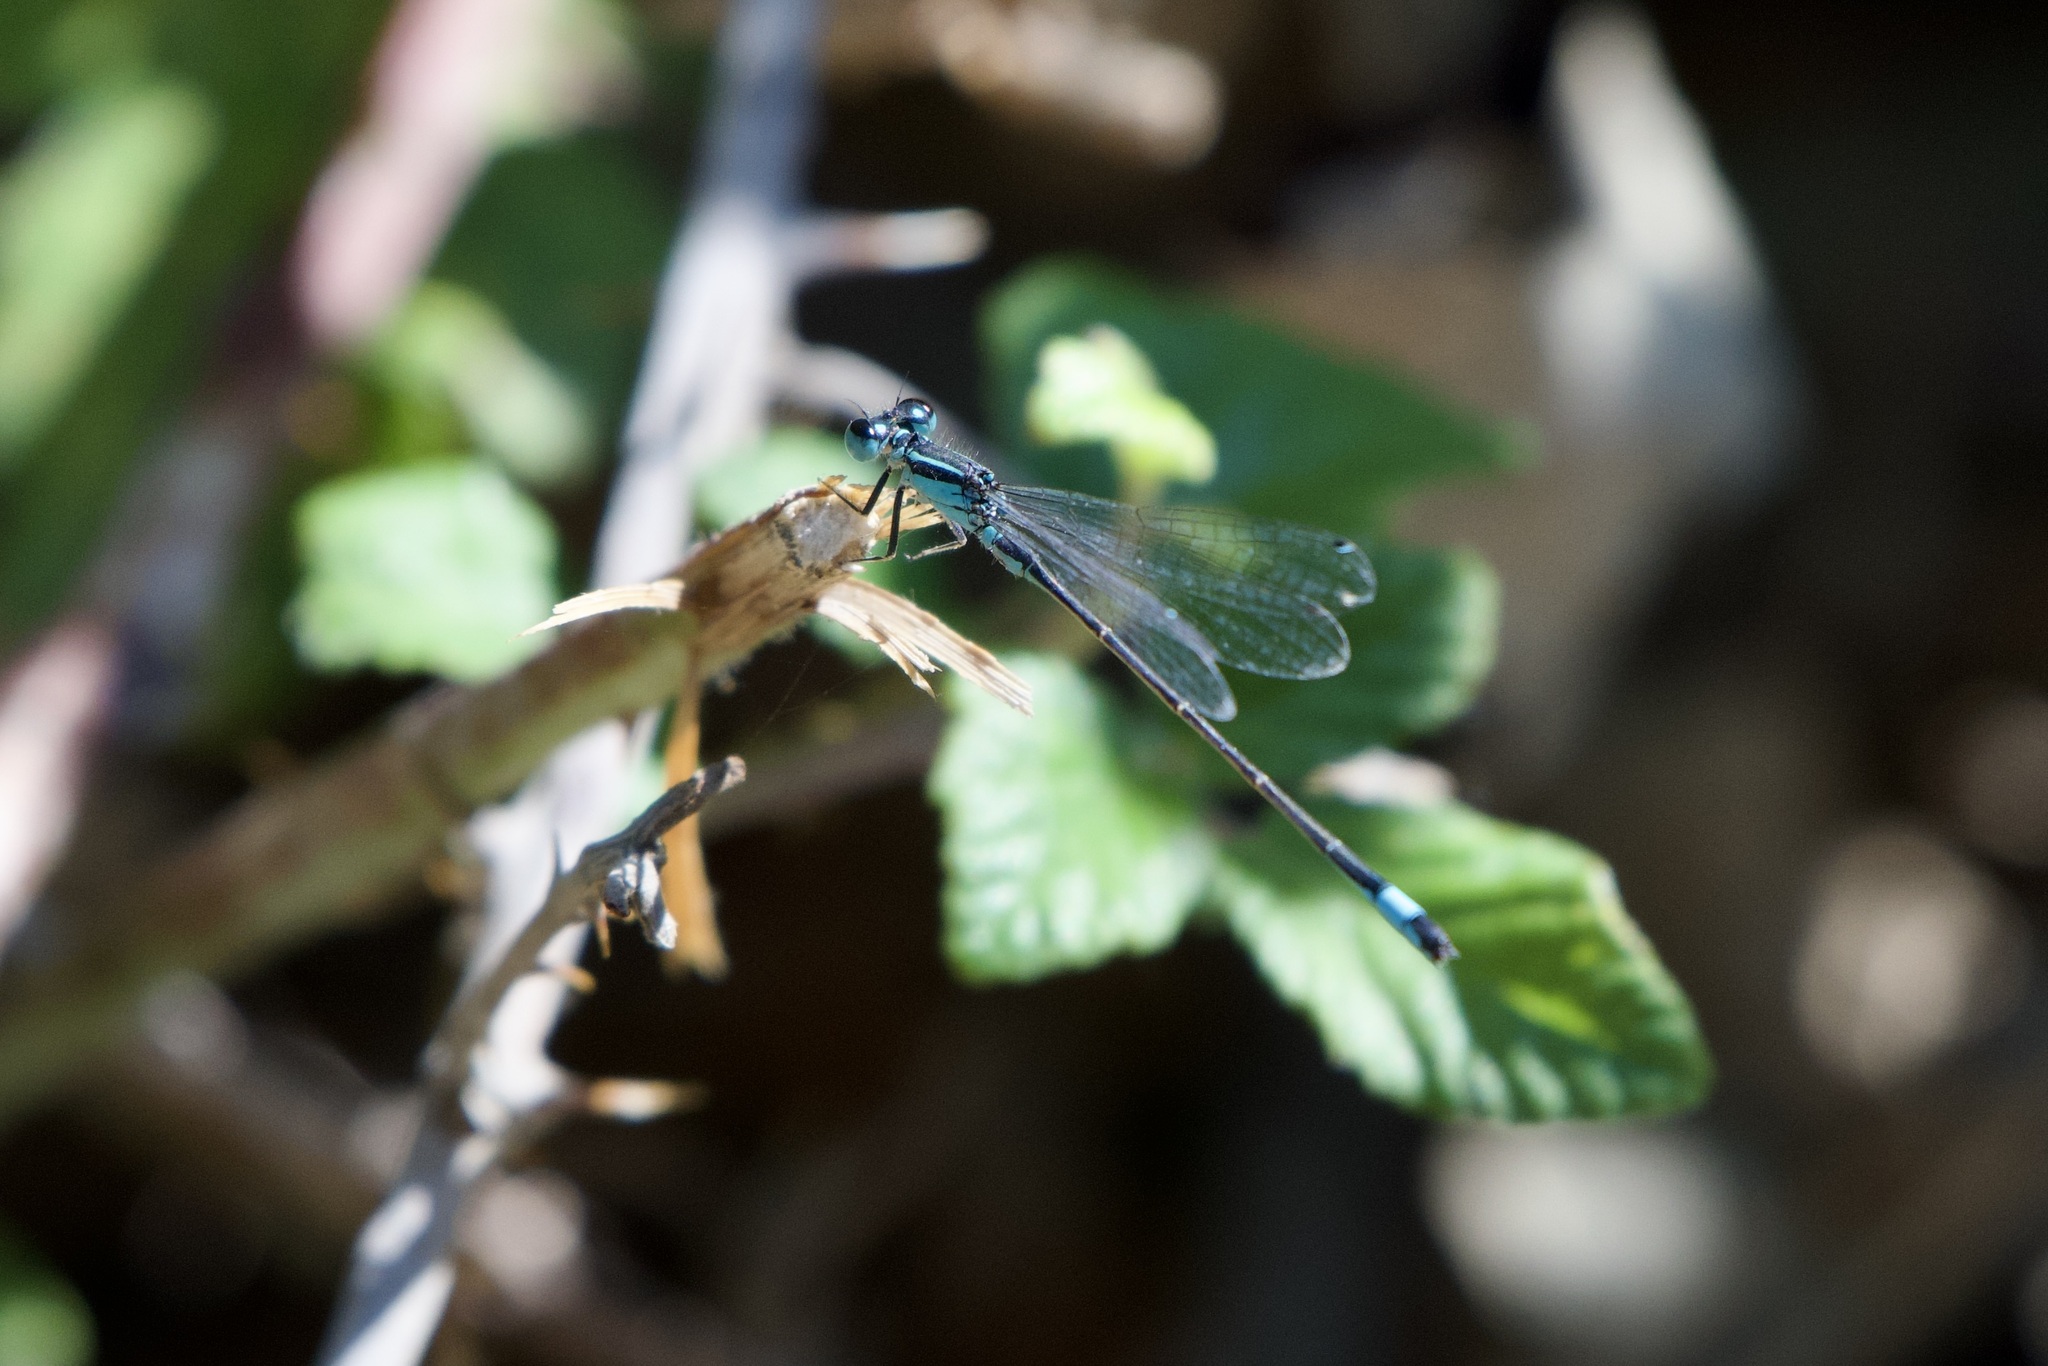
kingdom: Animalia
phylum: Arthropoda
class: Insecta
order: Odonata
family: Coenagrionidae
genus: Ischnura
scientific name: Ischnura elegans
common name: Blue-tailed damselfly
